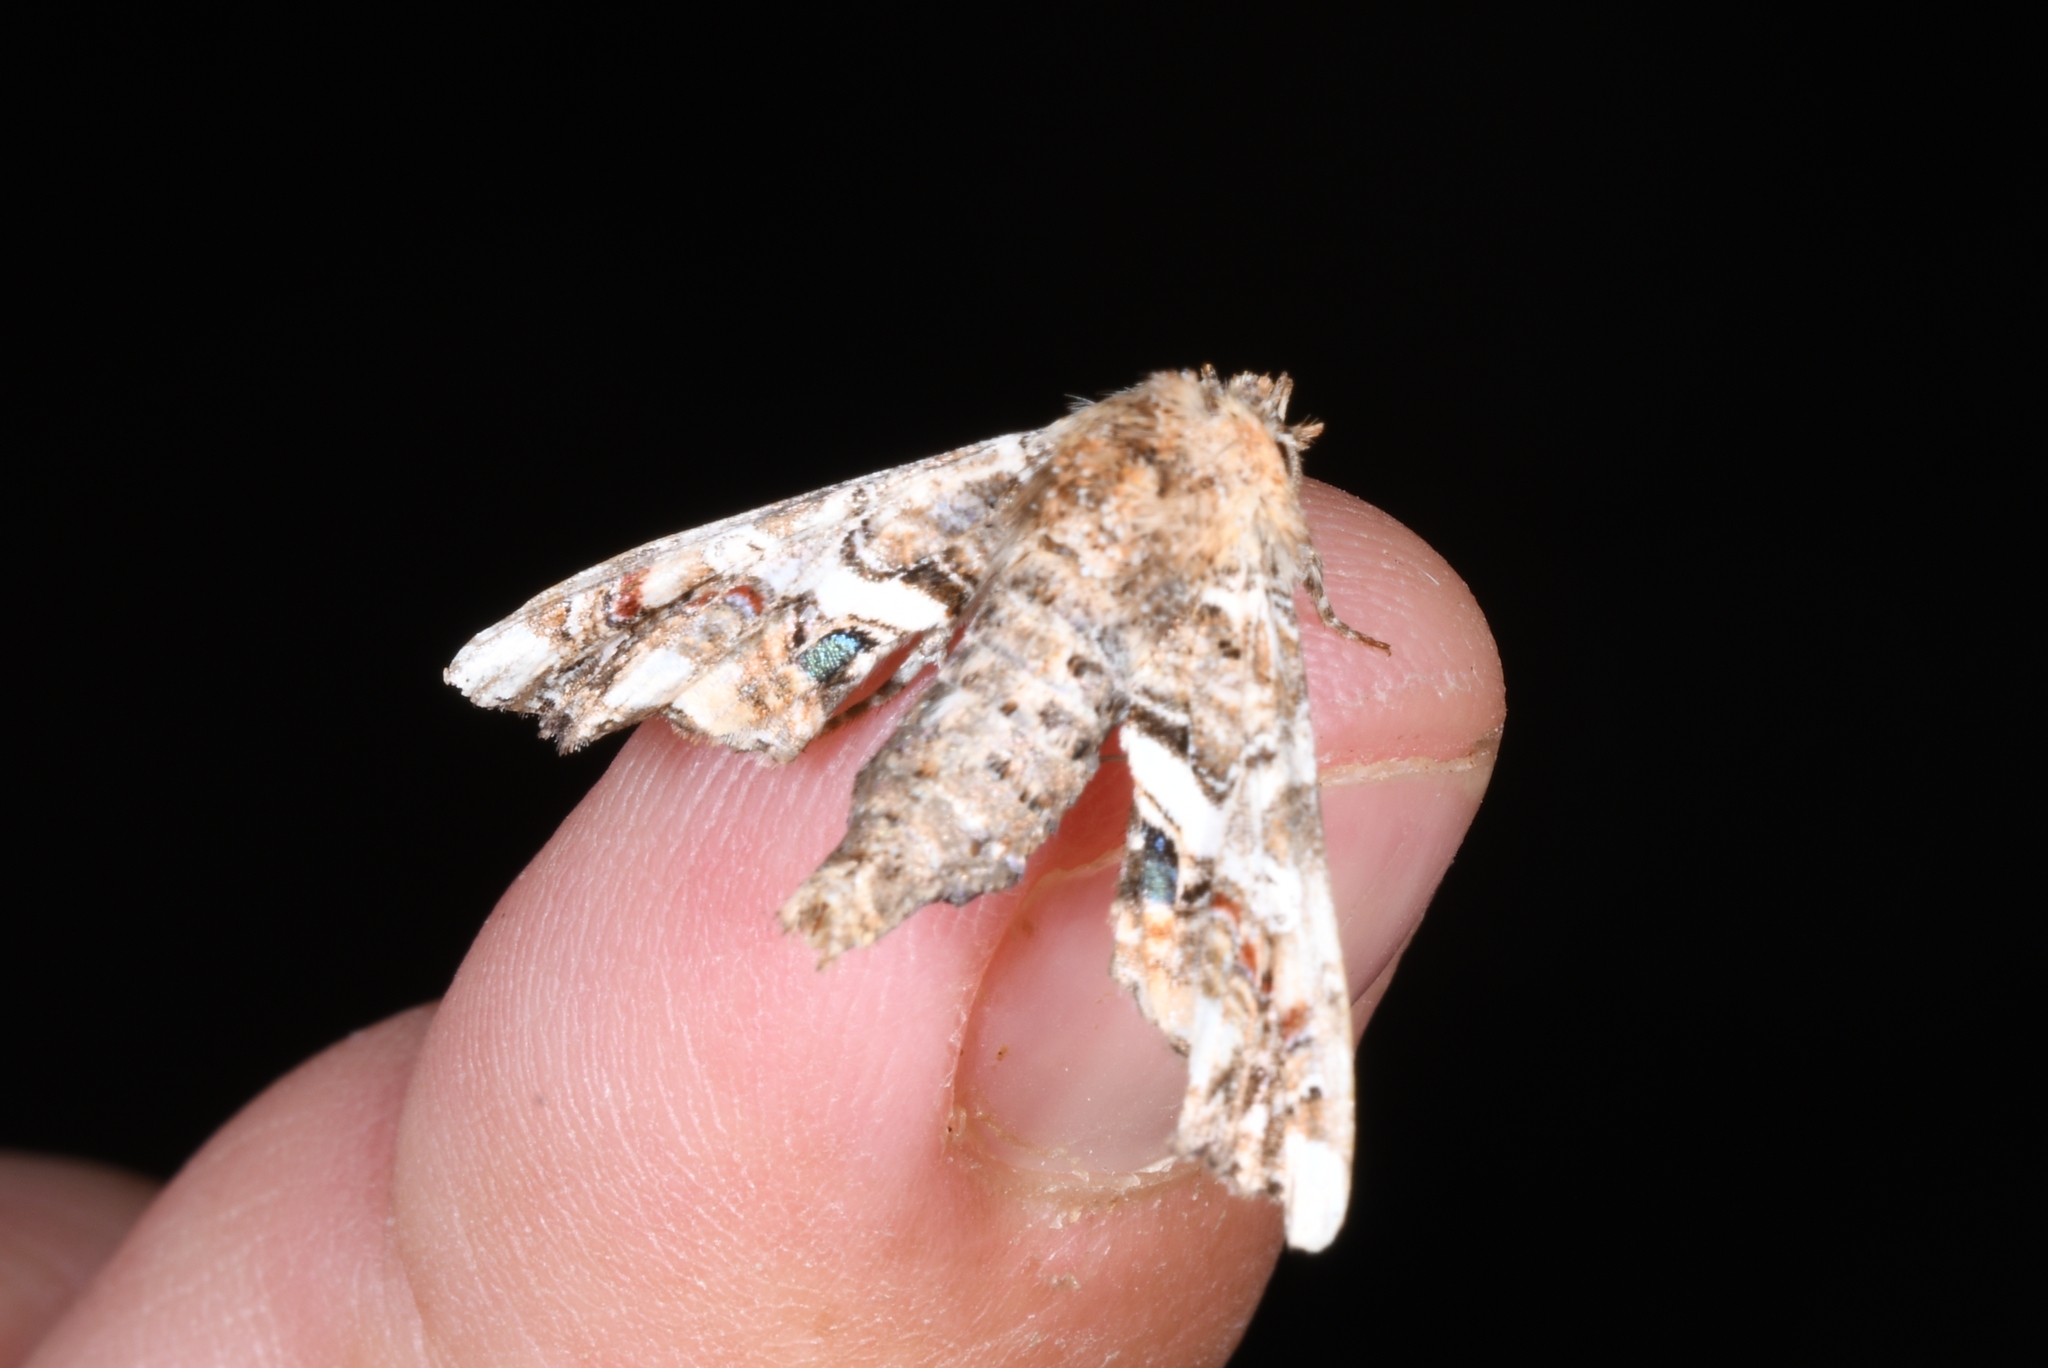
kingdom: Animalia
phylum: Arthropoda
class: Insecta
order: Lepidoptera
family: Euteliidae
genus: Eutelia
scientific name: Eutelia adulatrix
